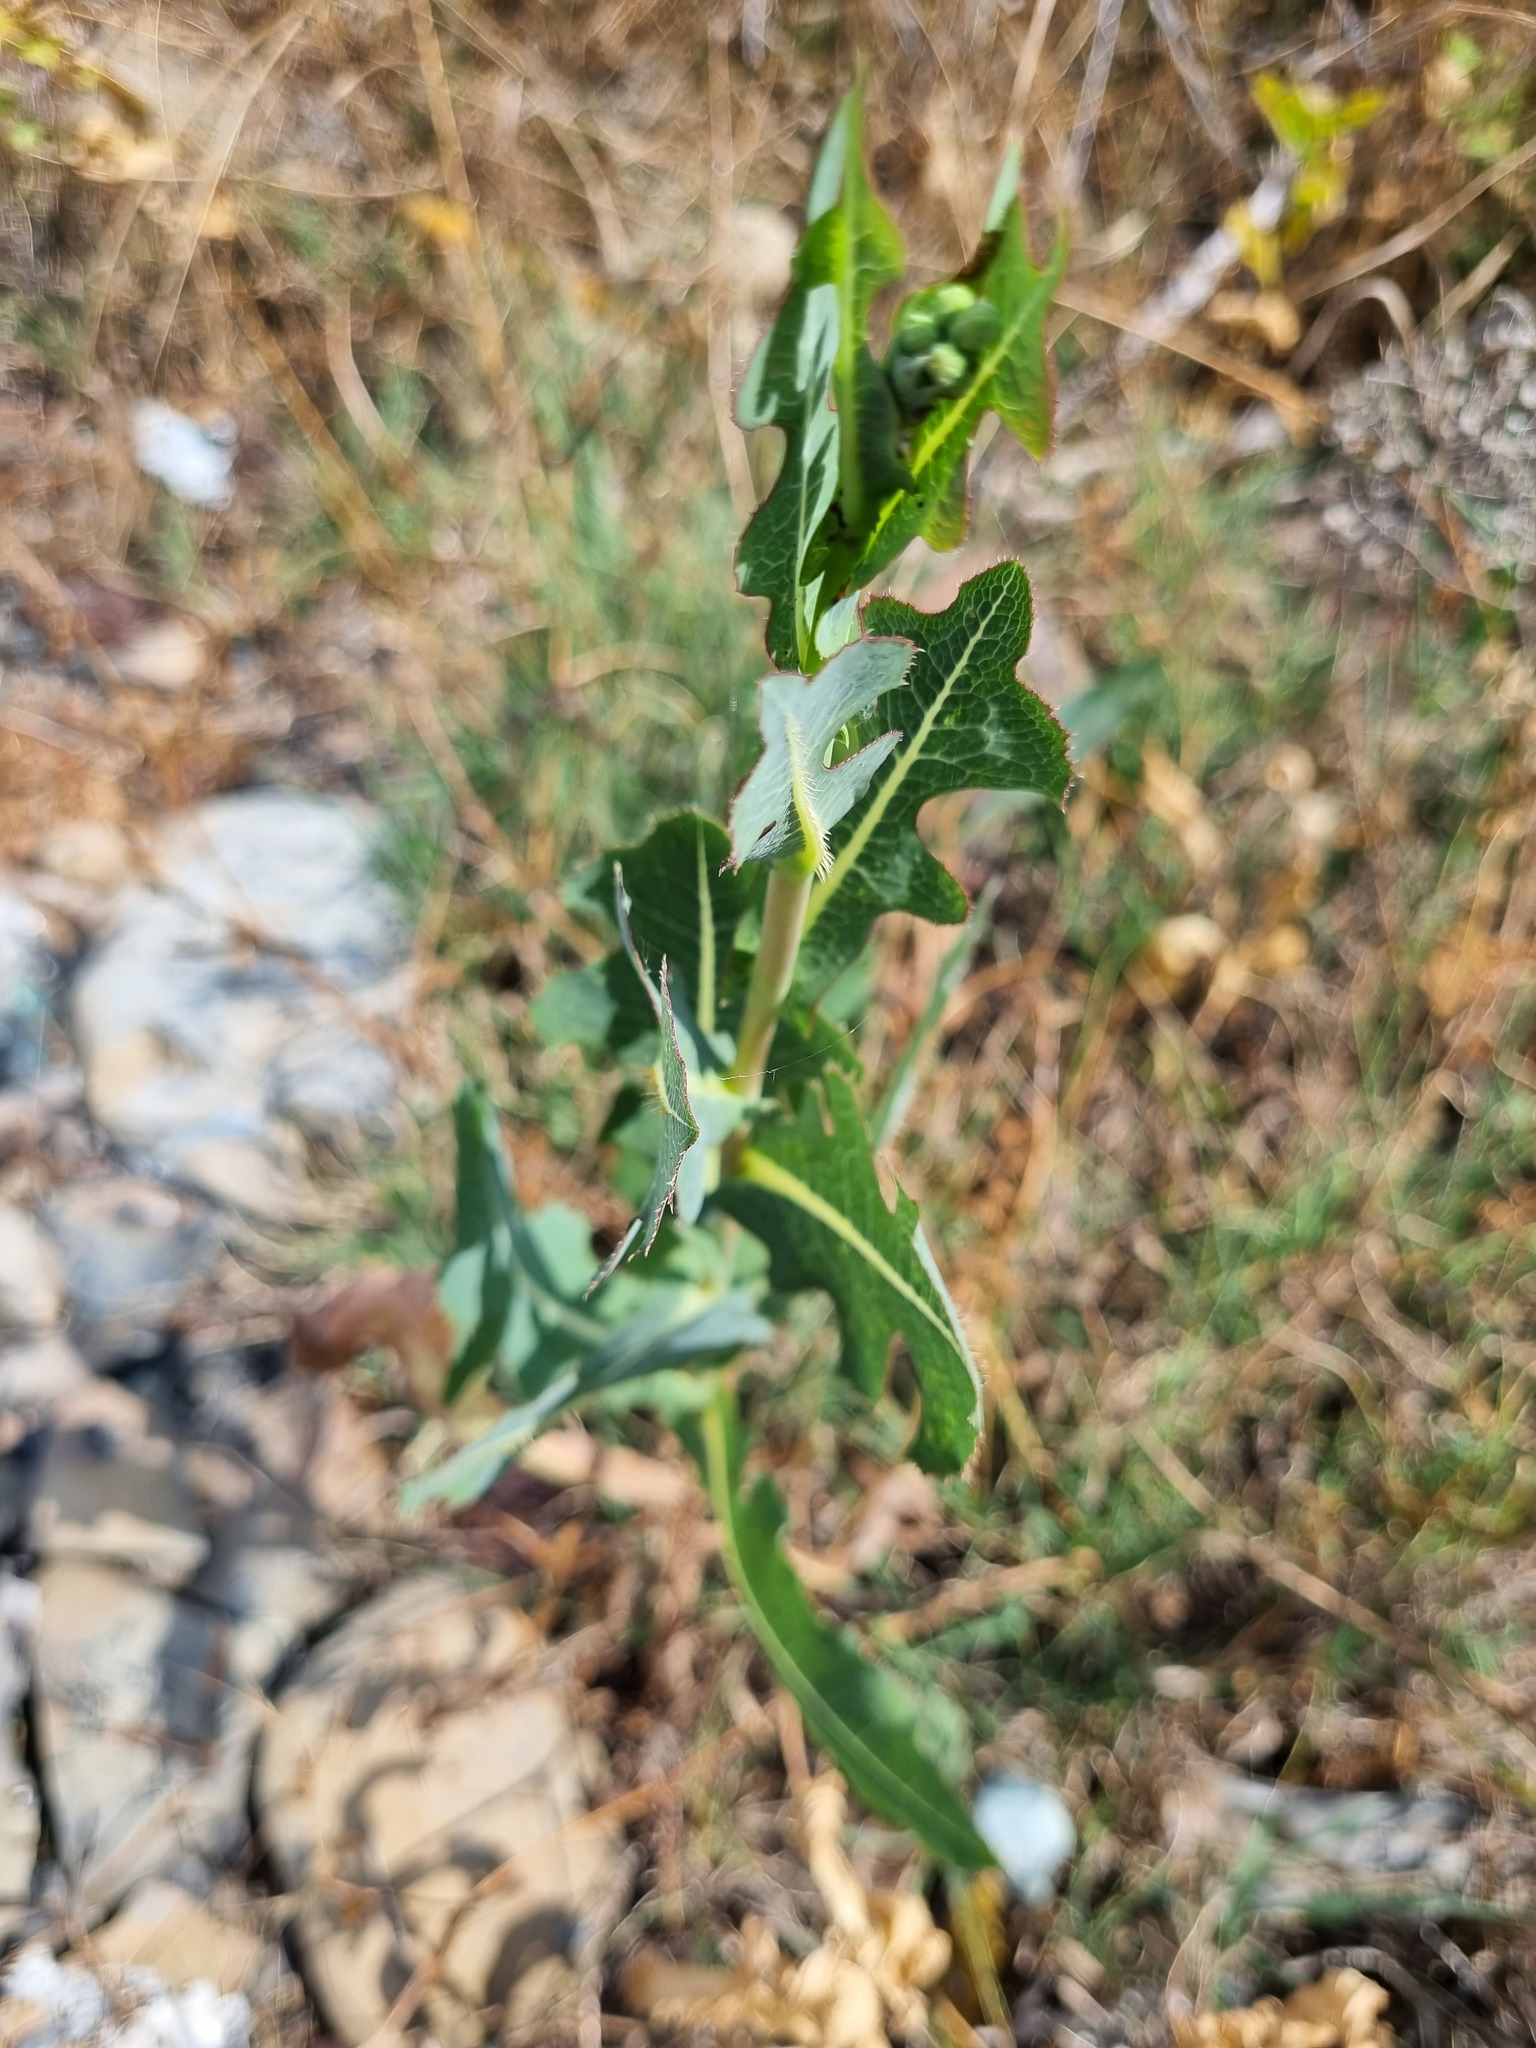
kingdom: Plantae
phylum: Tracheophyta
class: Magnoliopsida
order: Asterales
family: Asteraceae
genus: Lactuca
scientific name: Lactuca serriola
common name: Prickly lettuce
